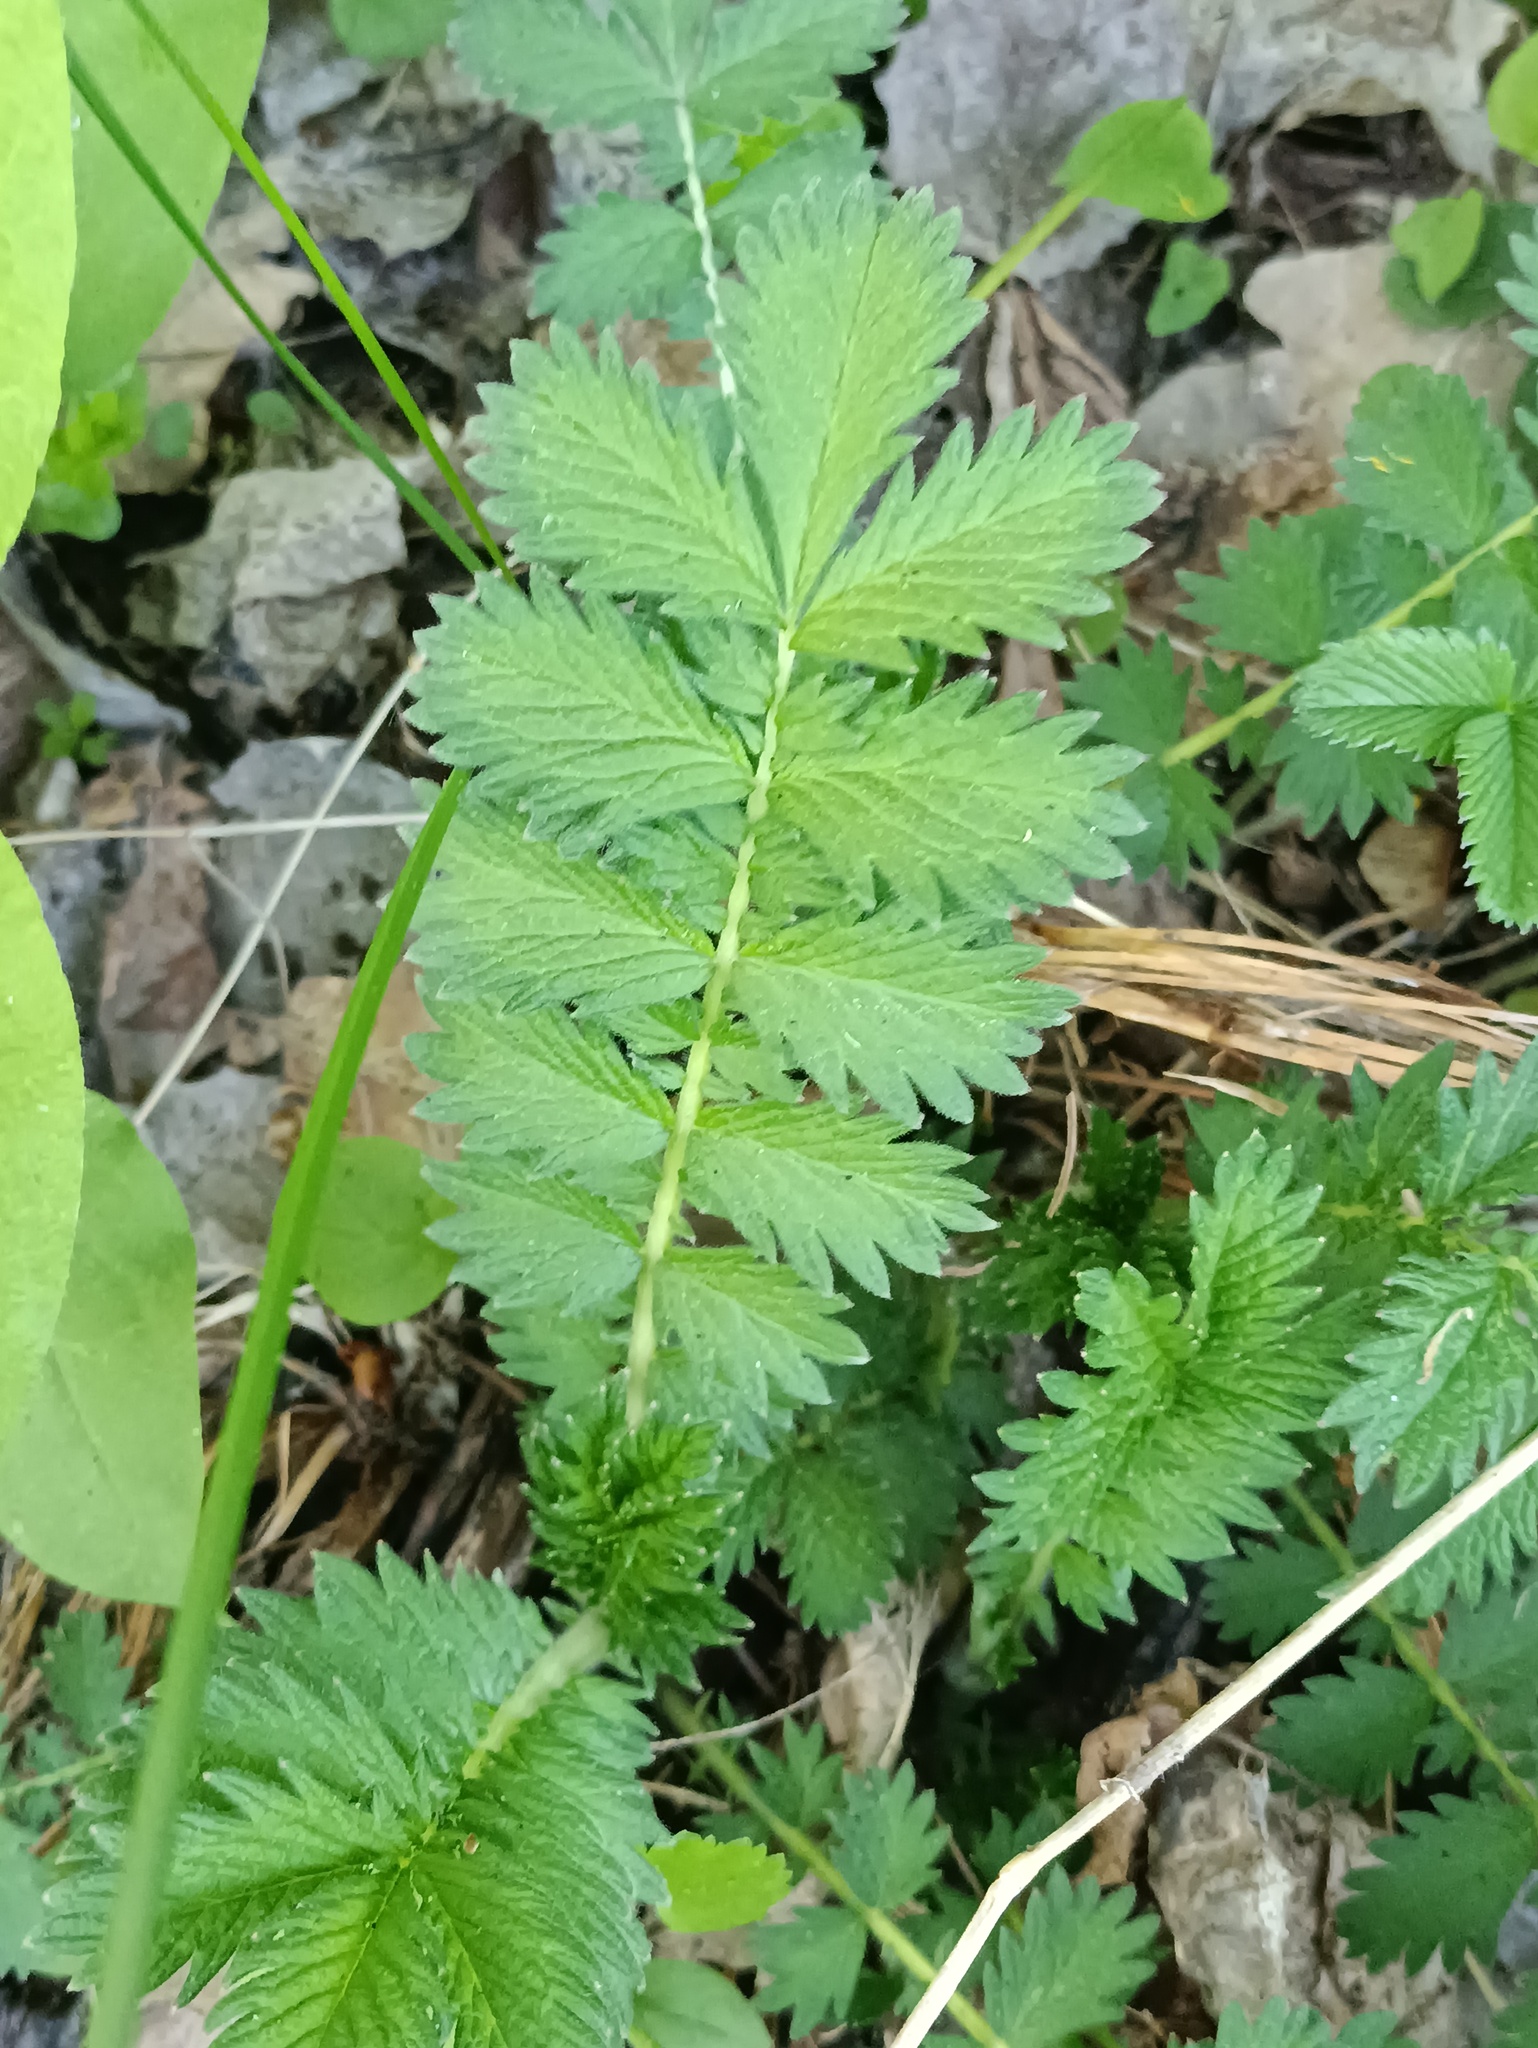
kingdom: Plantae
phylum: Tracheophyta
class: Magnoliopsida
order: Rosales
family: Rosaceae
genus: Argentina
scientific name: Argentina anserina
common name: Common silverweed
